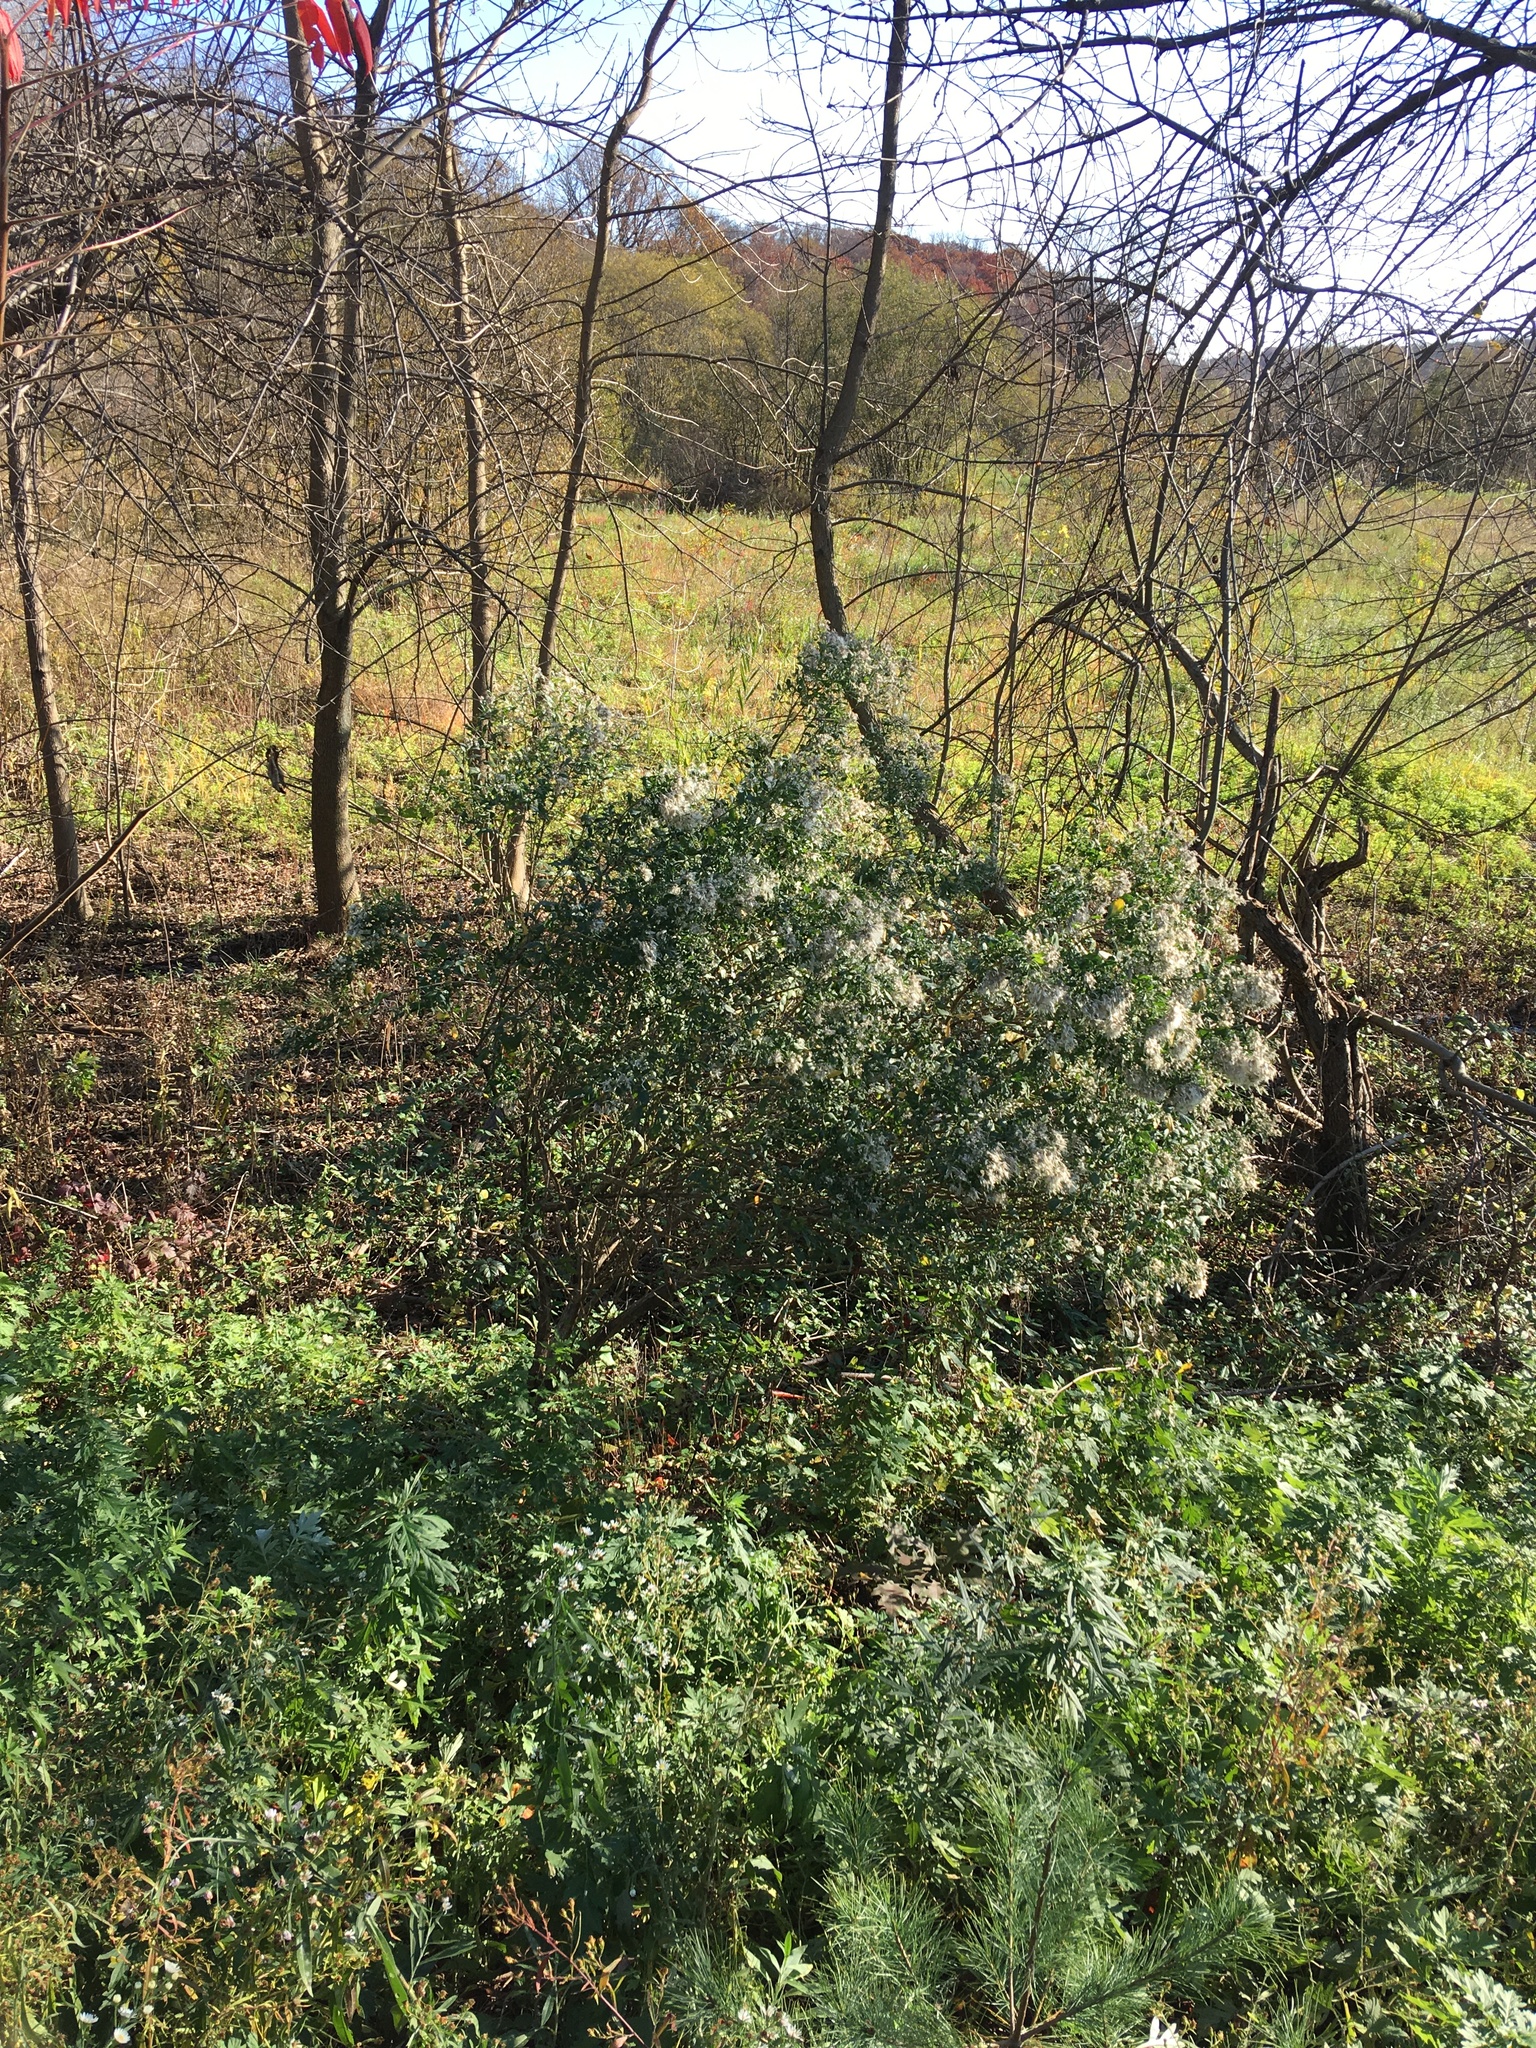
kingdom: Plantae
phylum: Tracheophyta
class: Magnoliopsida
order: Asterales
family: Asteraceae
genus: Baccharis
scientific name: Baccharis halimifolia
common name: Eastern baccharis
